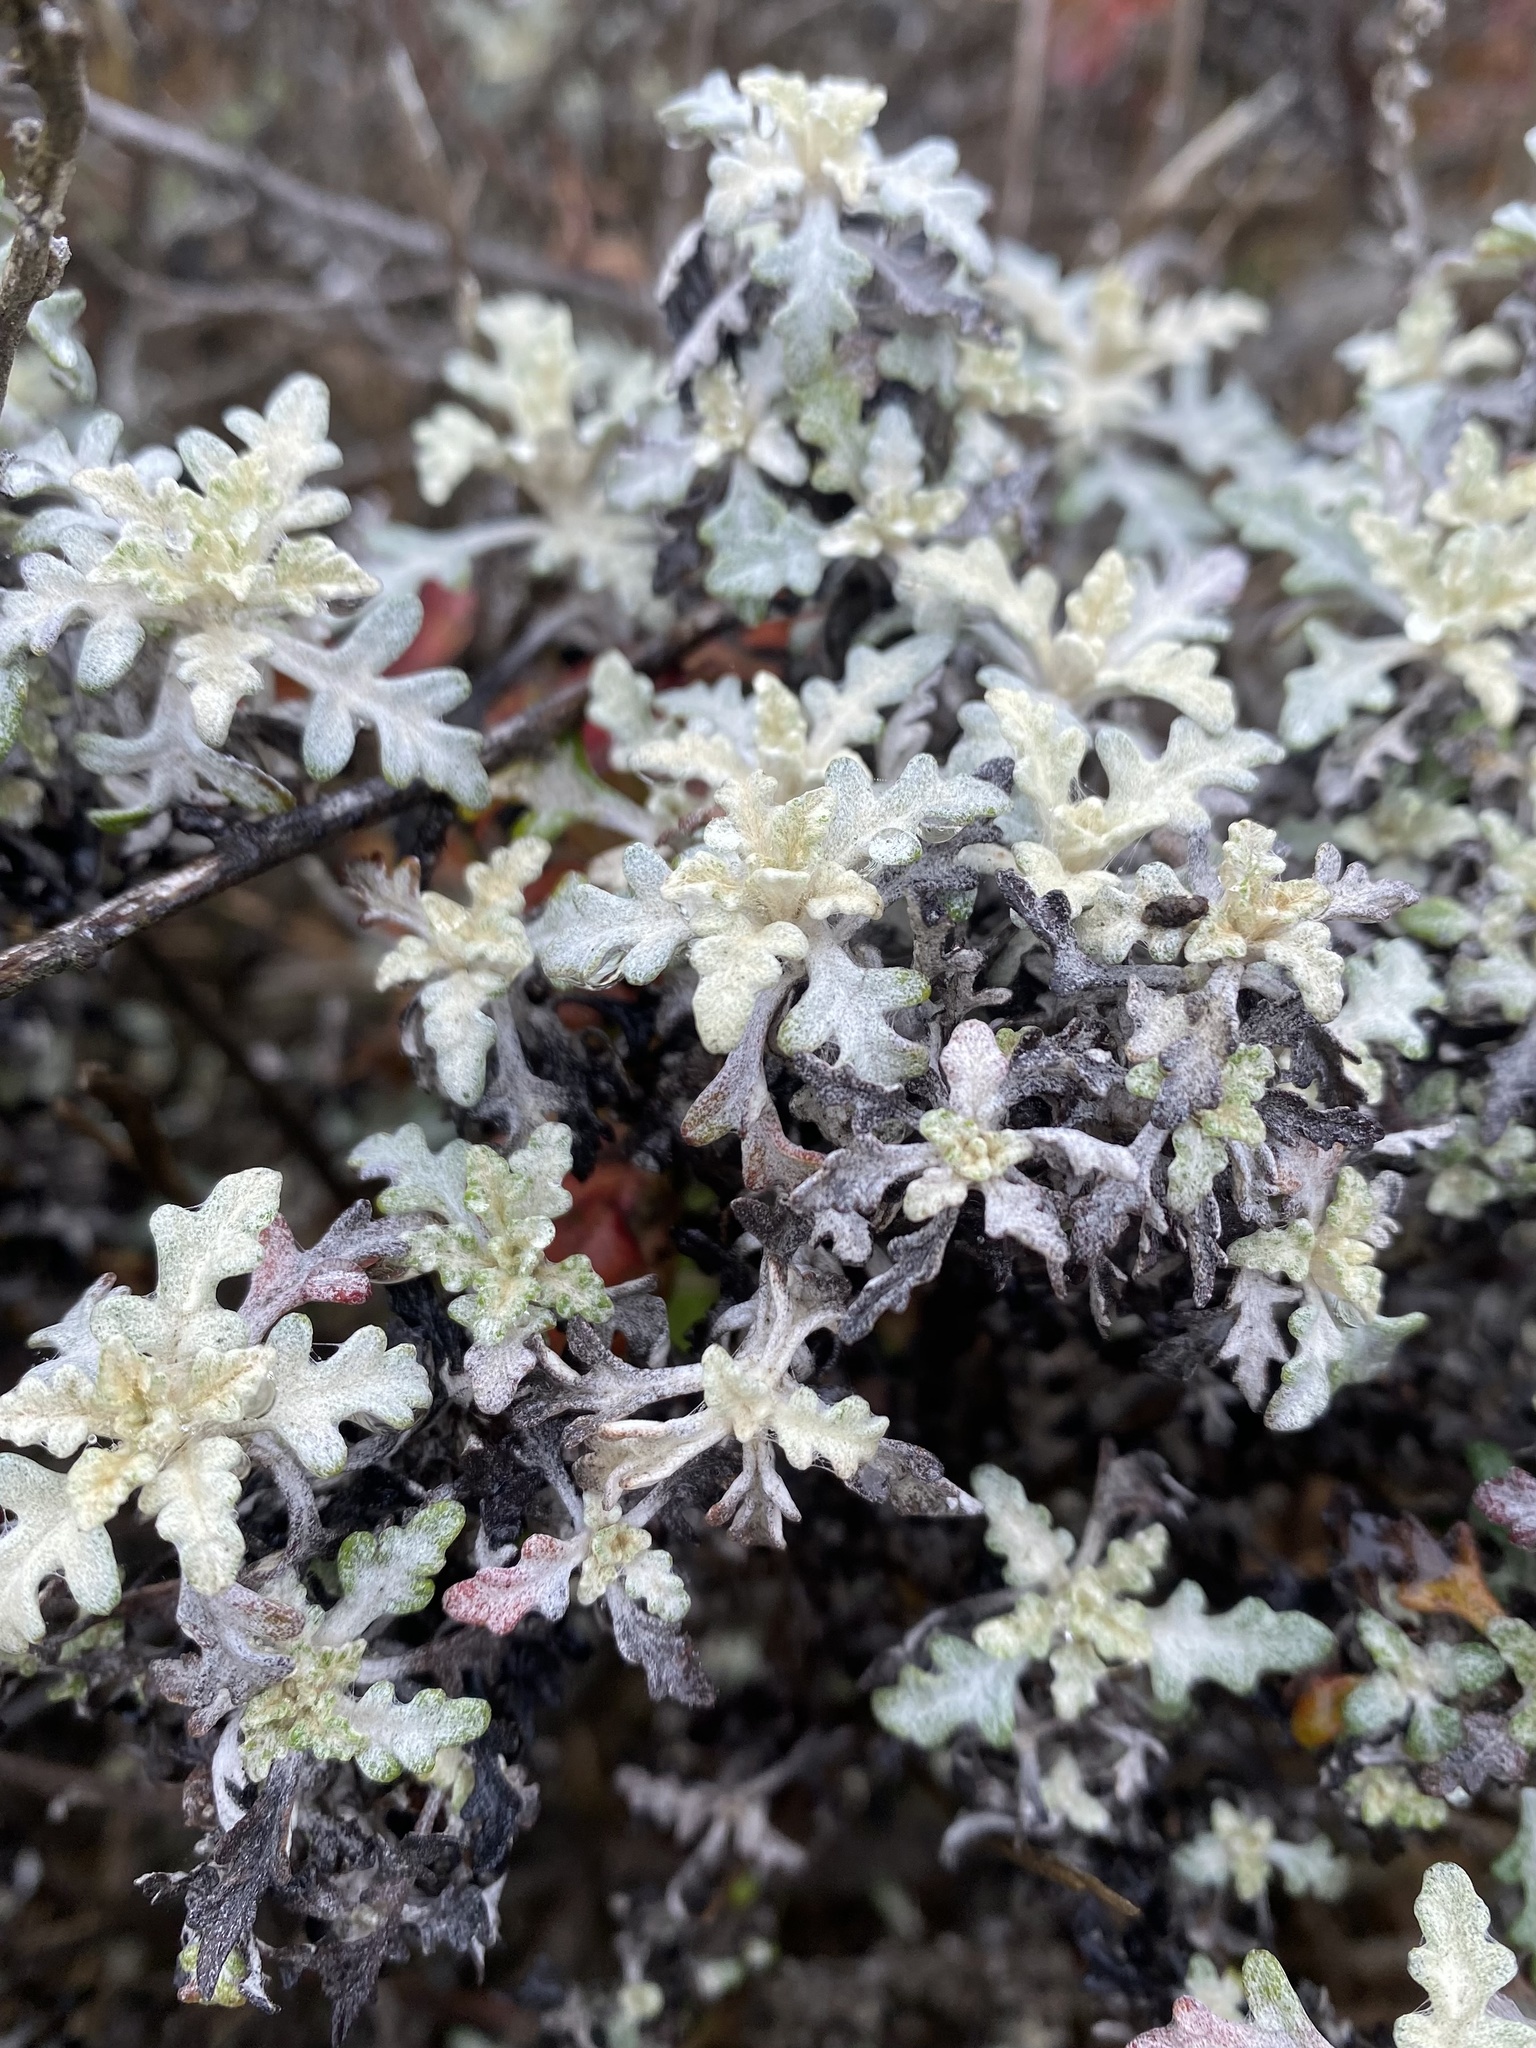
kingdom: Plantae
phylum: Tracheophyta
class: Magnoliopsida
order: Asterales
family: Asteraceae
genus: Eriophyllum
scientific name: Eriophyllum staechadifolium
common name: Lizardtail
